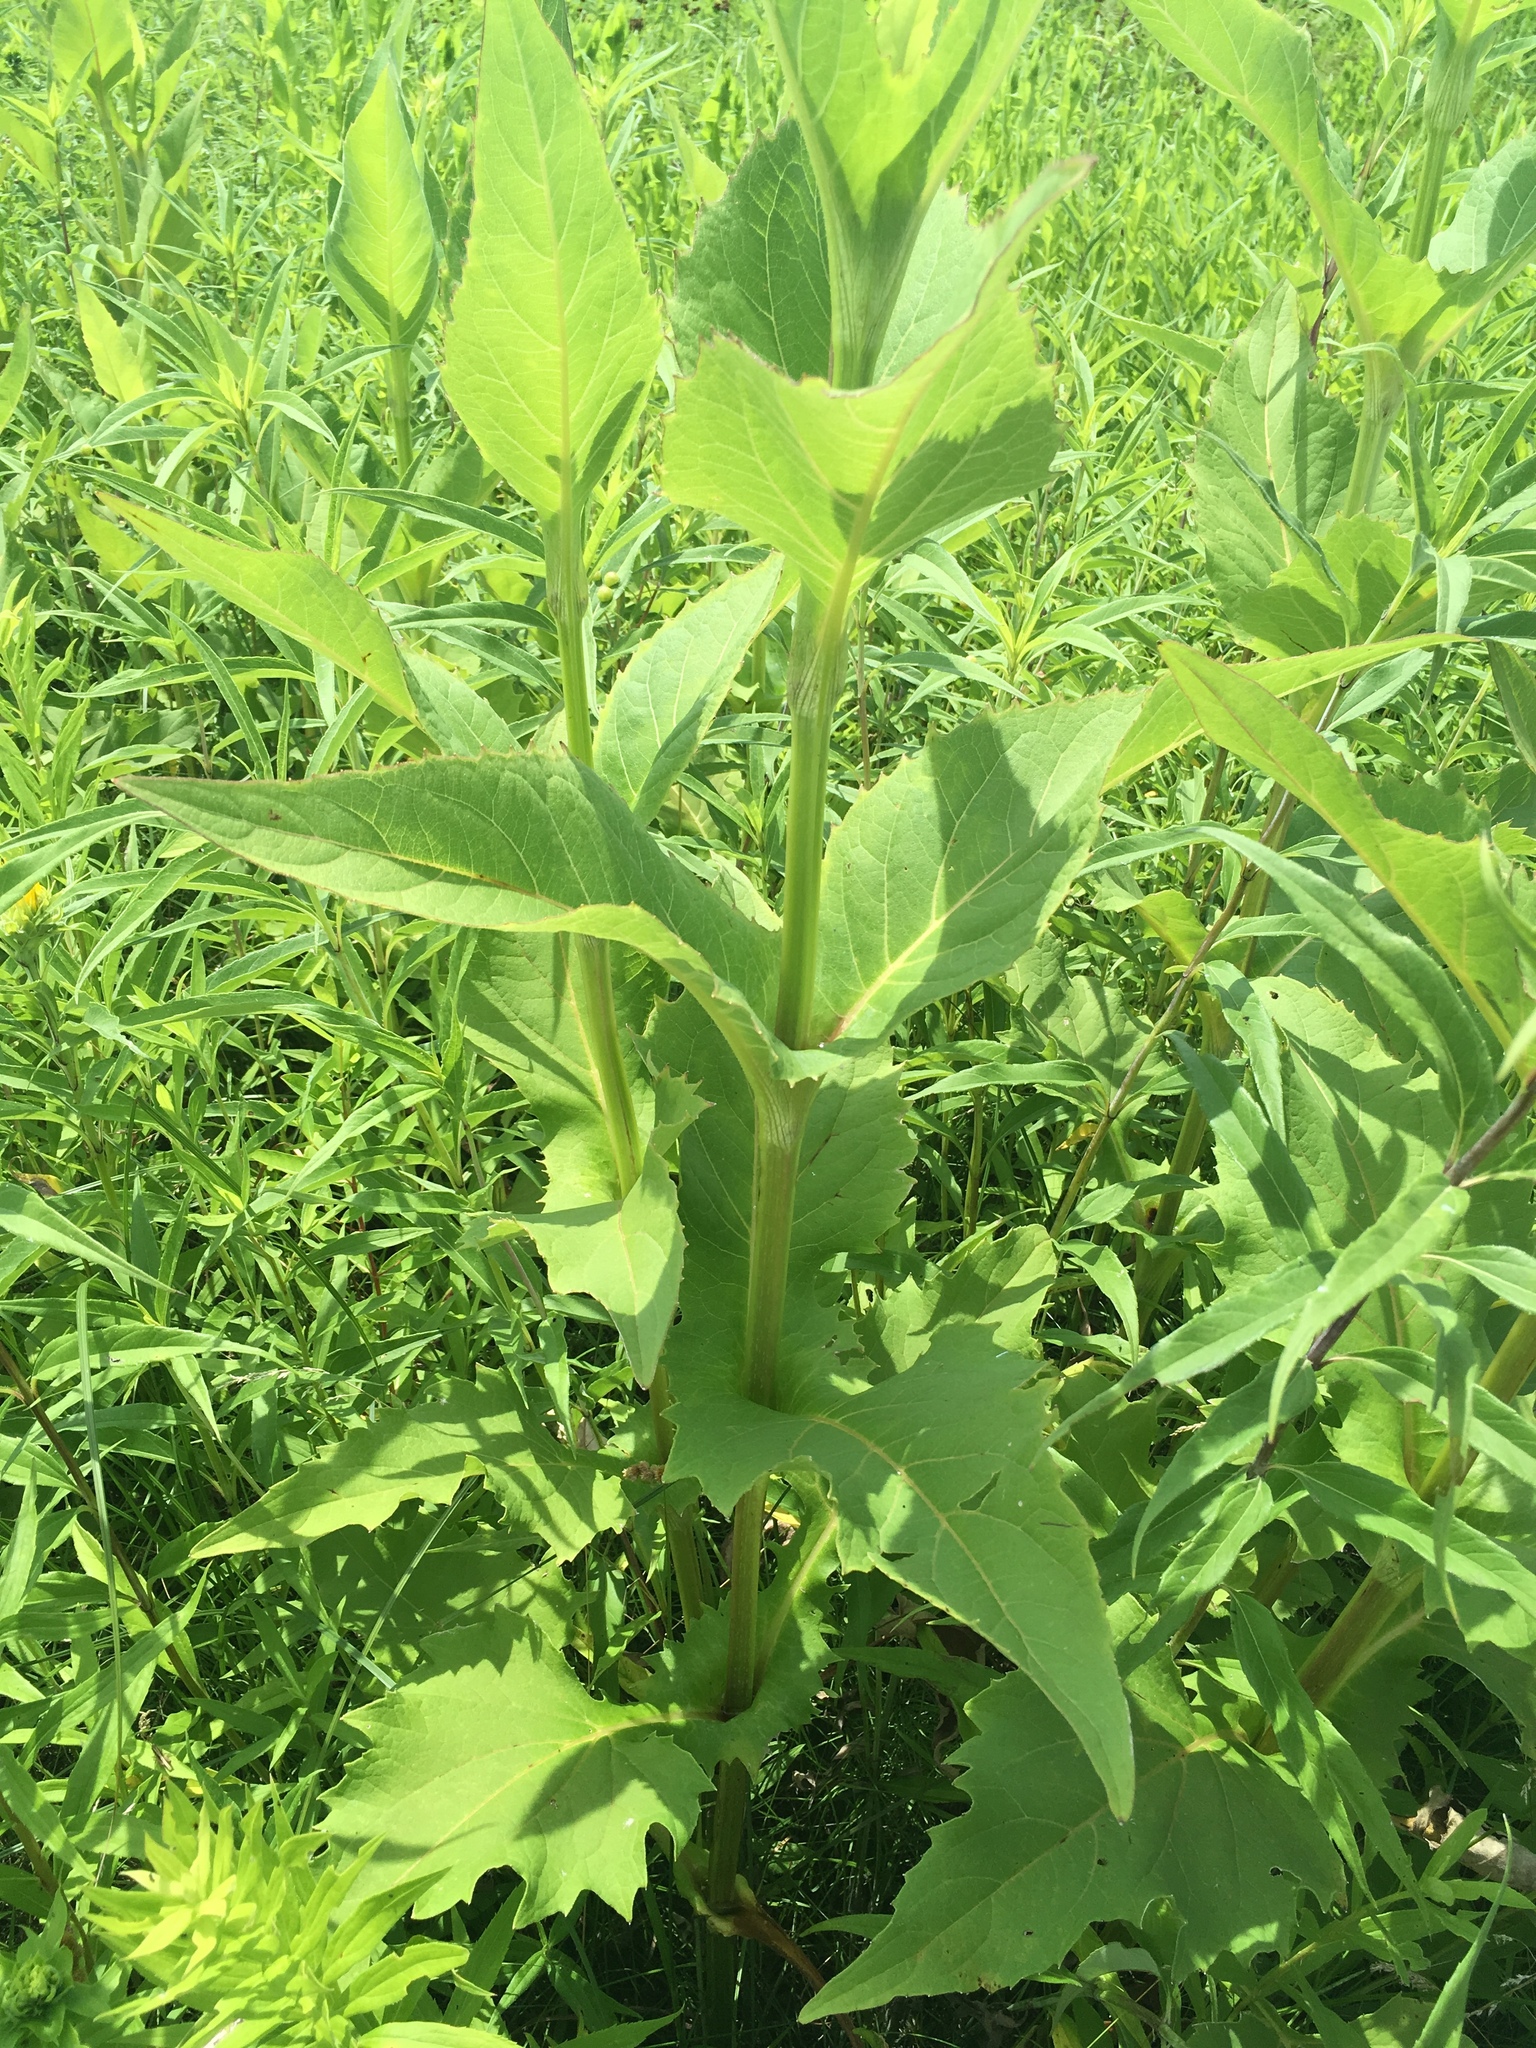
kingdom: Plantae
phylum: Tracheophyta
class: Magnoliopsida
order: Asterales
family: Asteraceae
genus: Silphium
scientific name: Silphium perfoliatum
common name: Cup-plant
